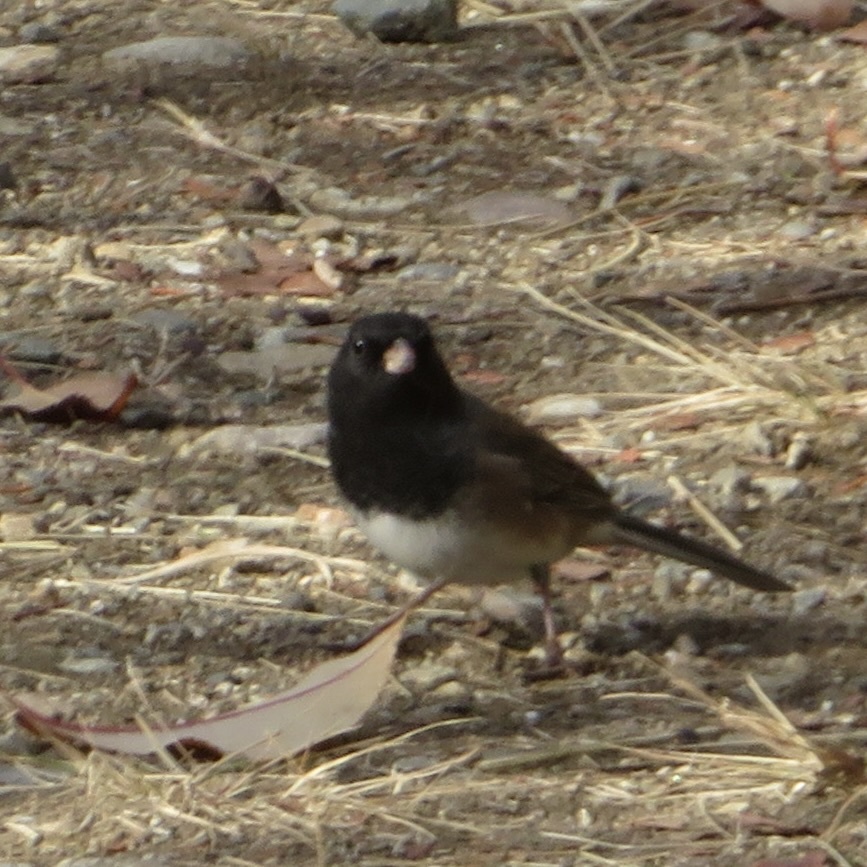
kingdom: Animalia
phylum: Chordata
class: Aves
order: Passeriformes
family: Passerellidae
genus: Junco
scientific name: Junco hyemalis
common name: Dark-eyed junco
